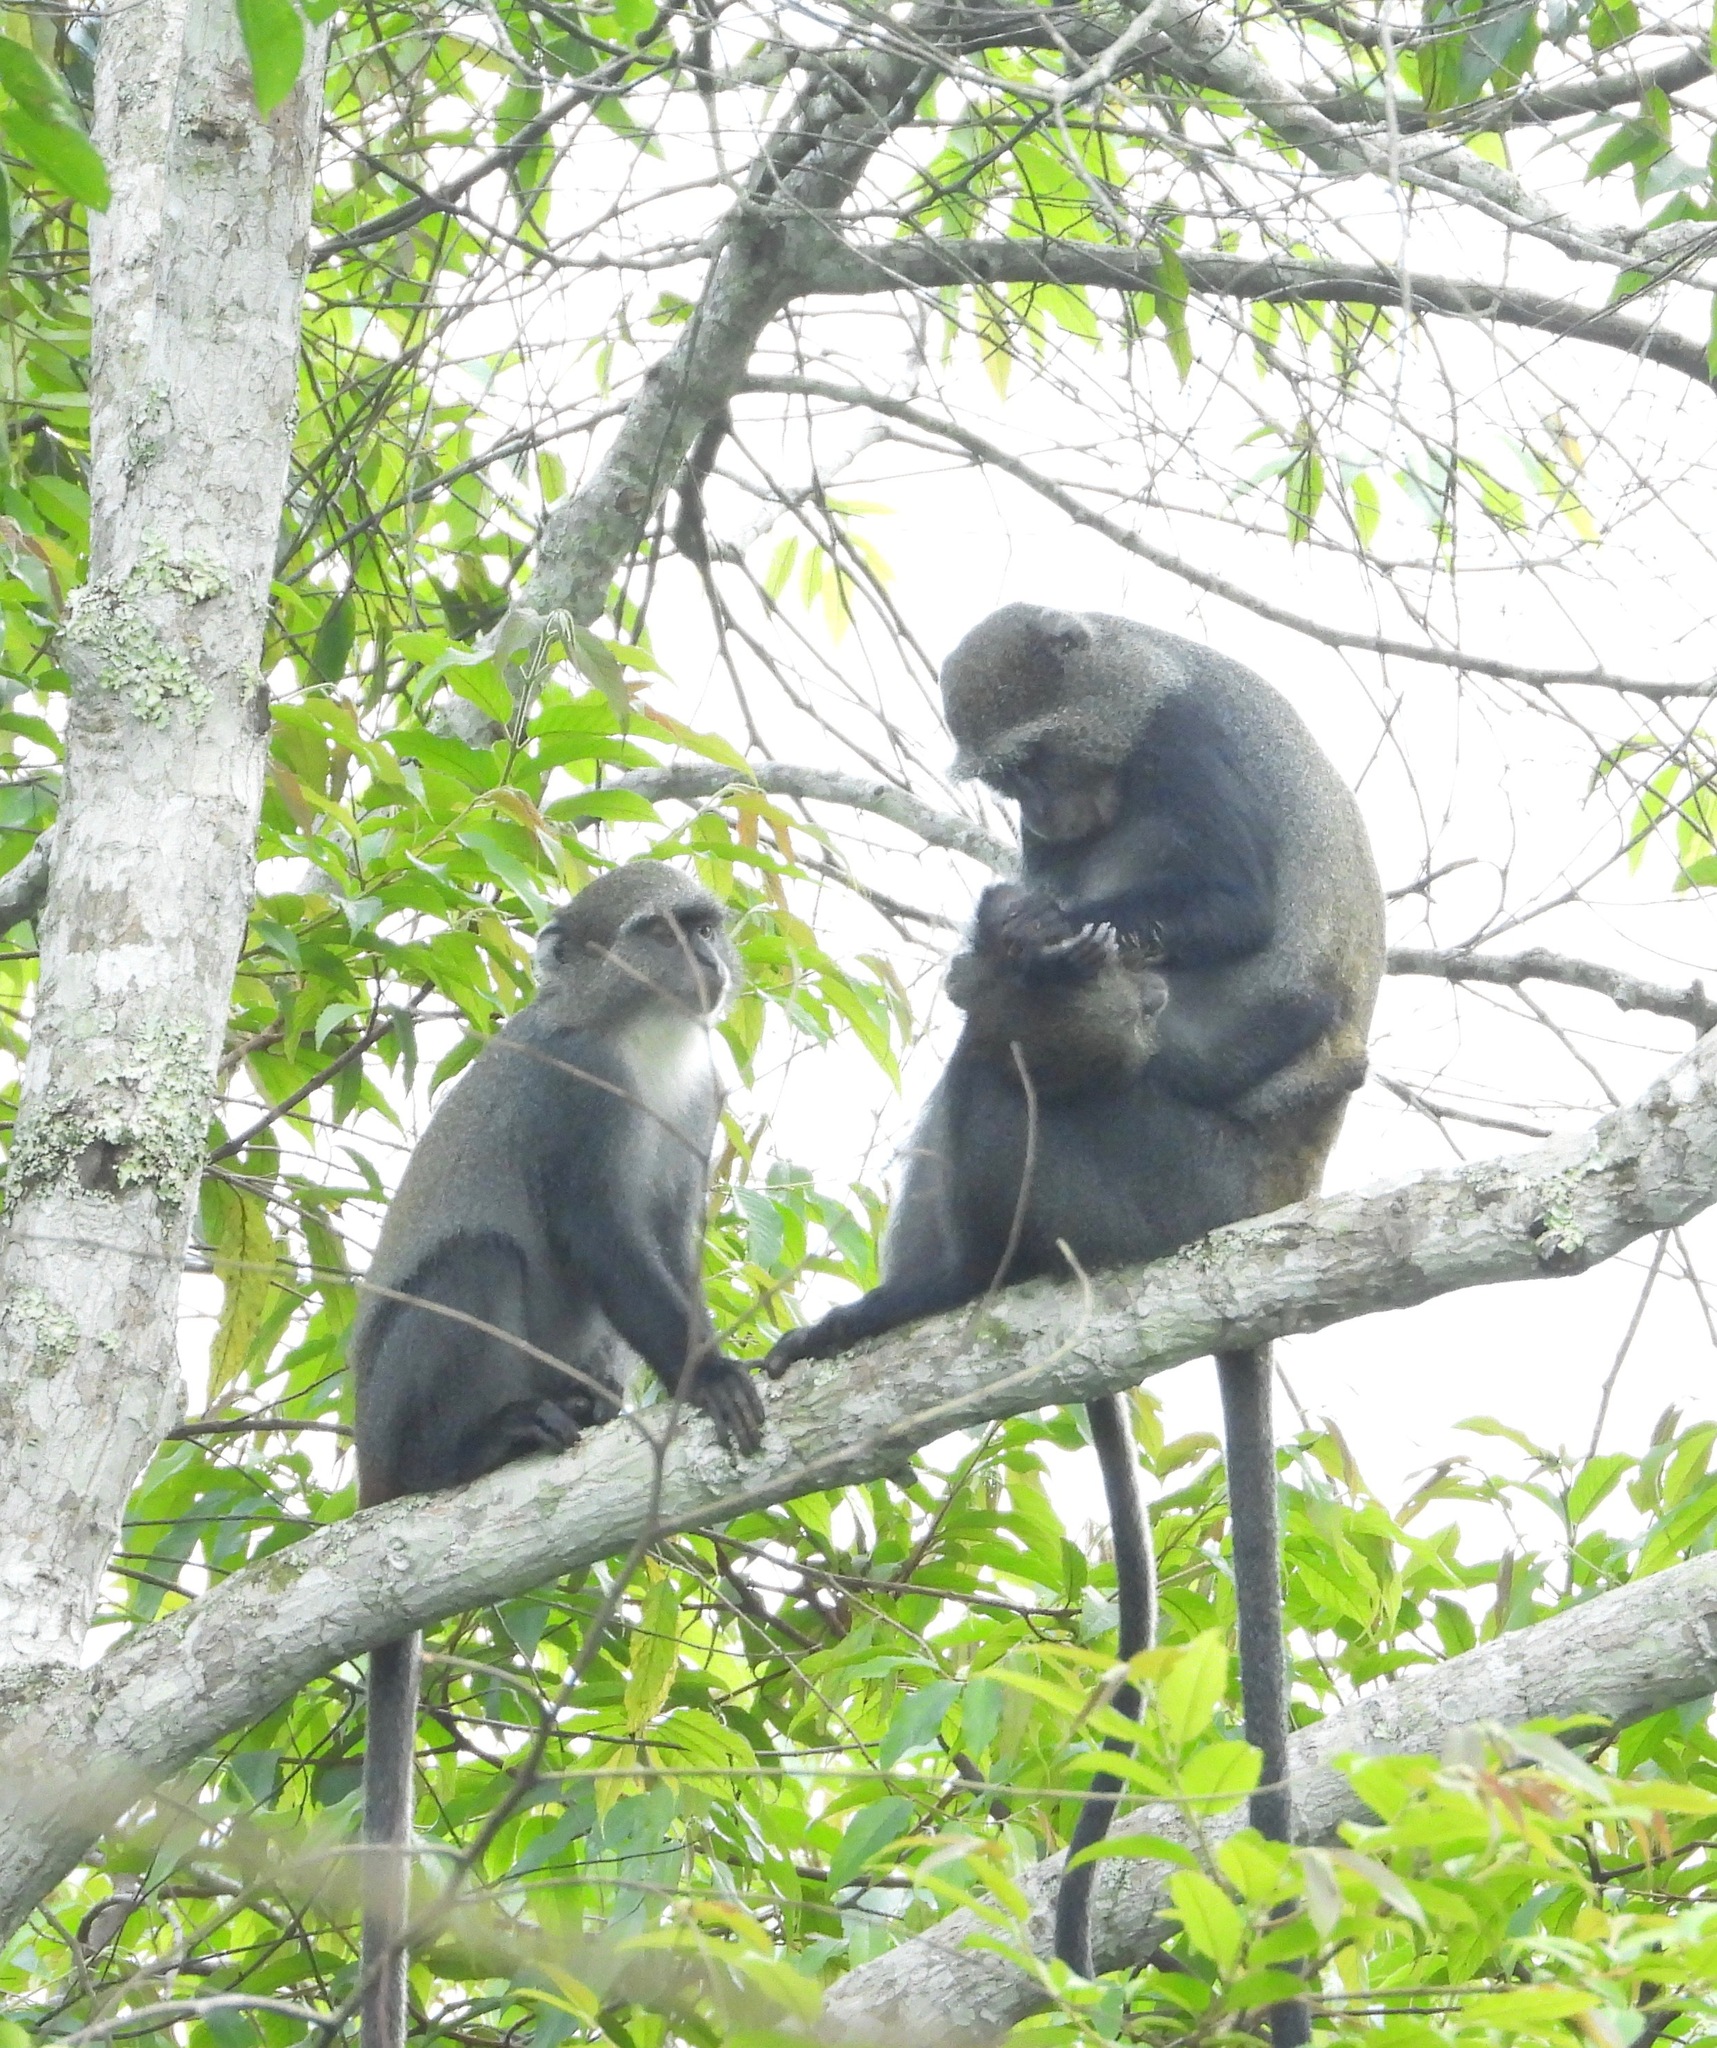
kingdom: Animalia
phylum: Chordata
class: Mammalia
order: Primates
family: Cercopithecidae
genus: Cercopithecus
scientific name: Cercopithecus mitis
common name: Blue monkey
